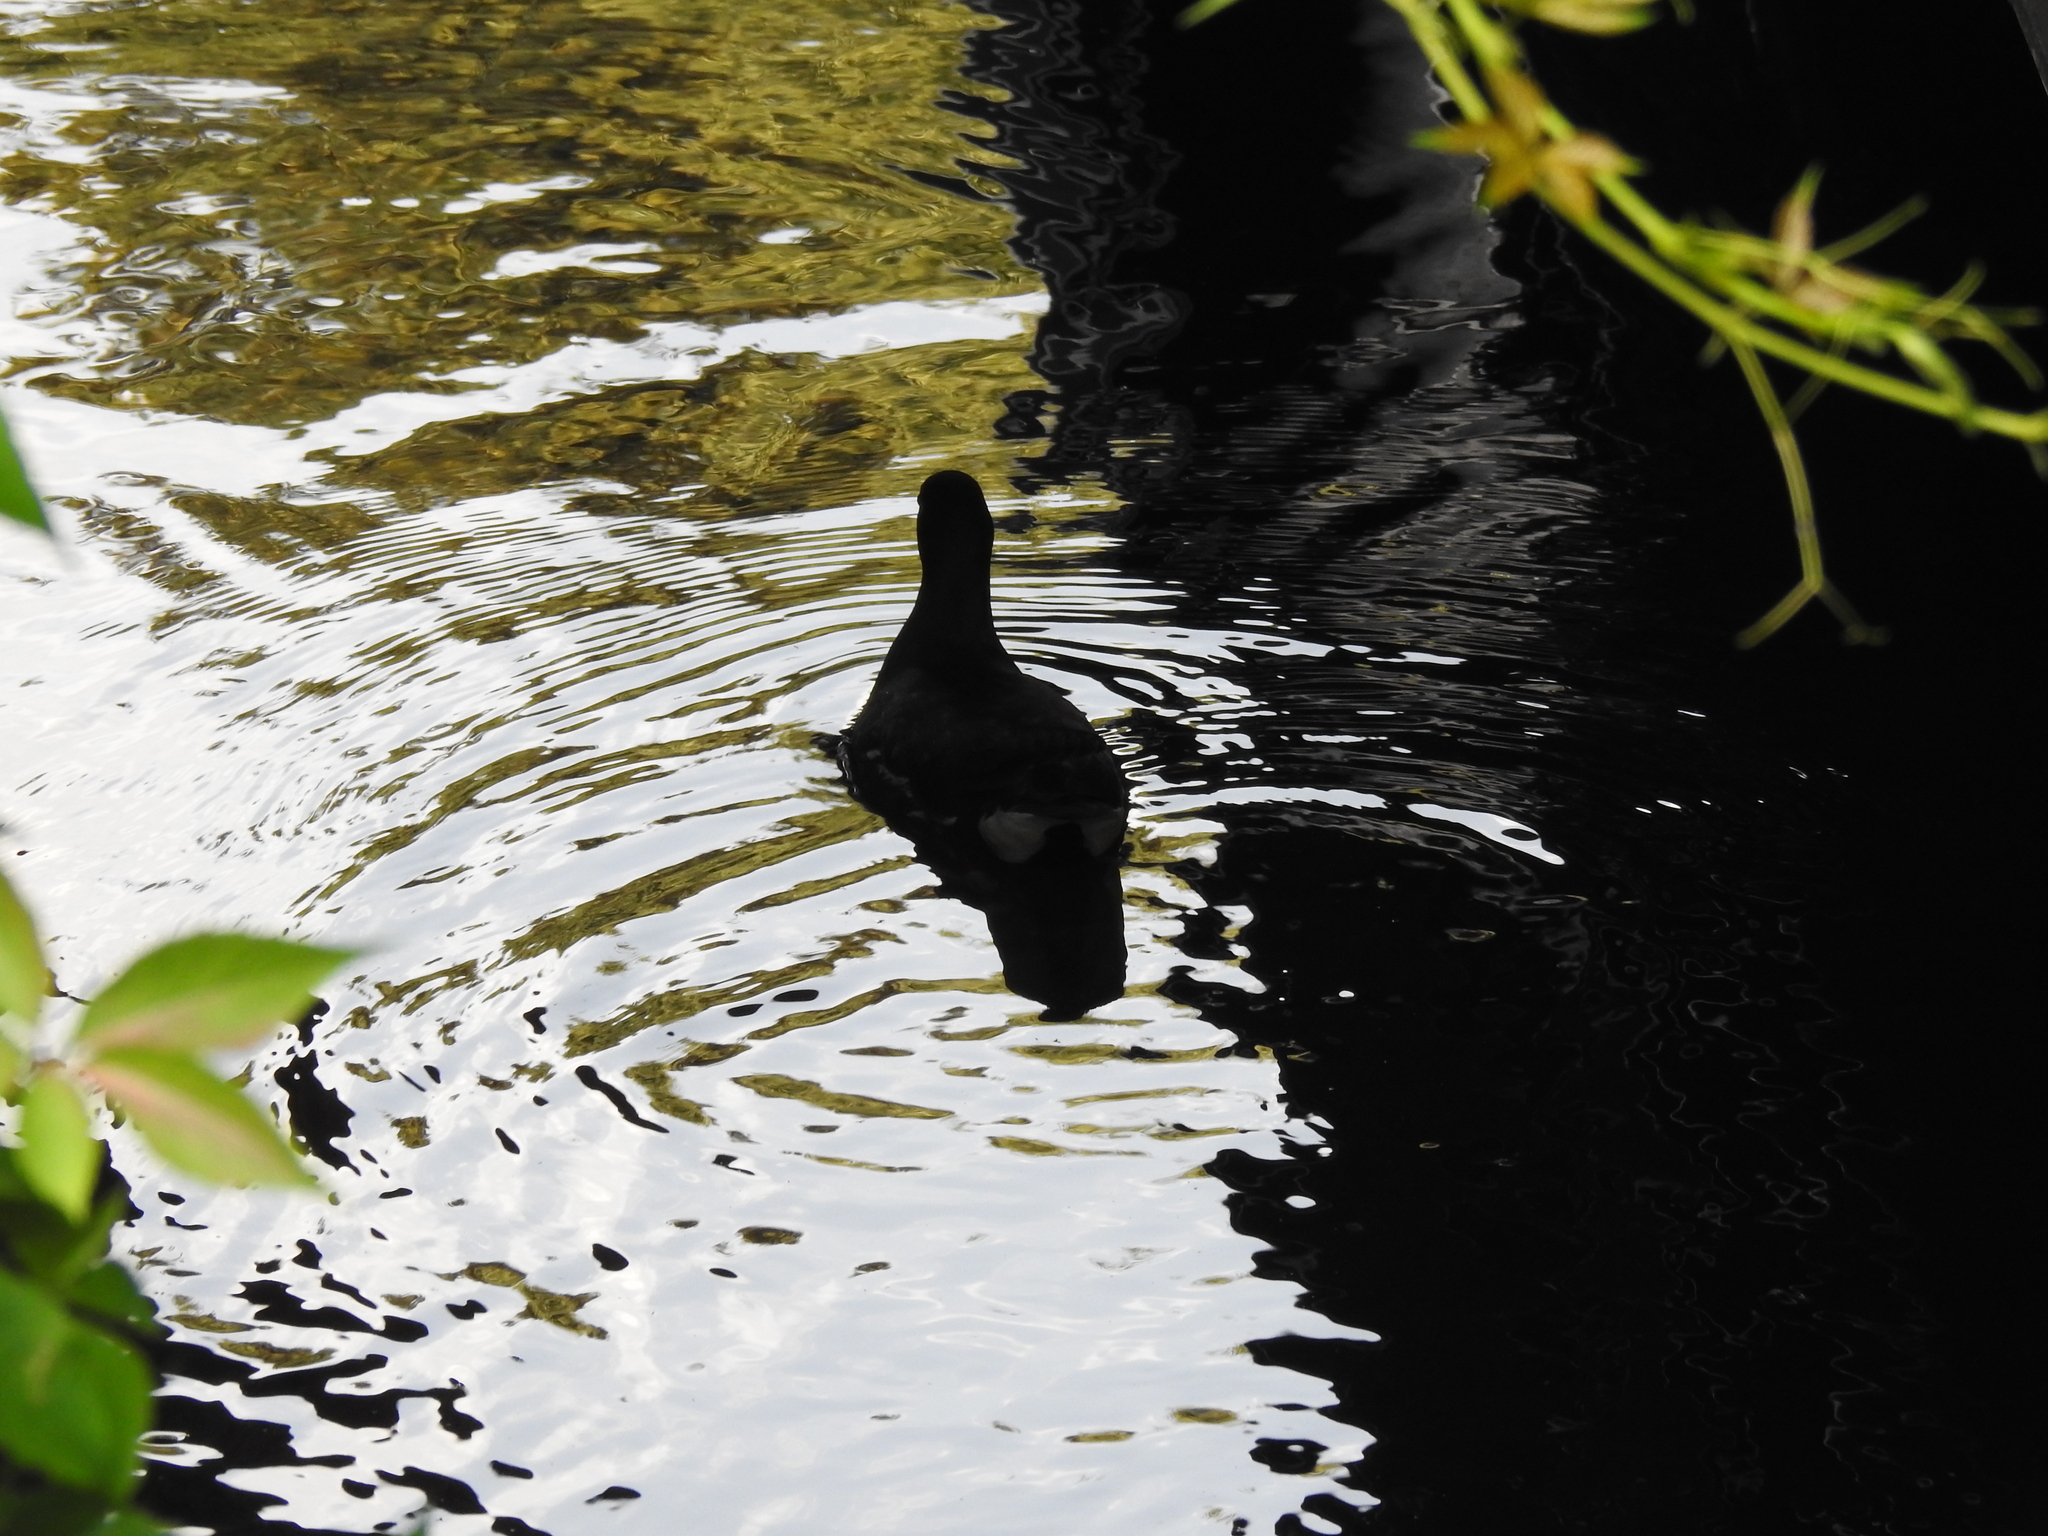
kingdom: Animalia
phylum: Chordata
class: Aves
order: Gruiformes
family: Rallidae
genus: Gallinula
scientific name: Gallinula chloropus
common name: Common moorhen
